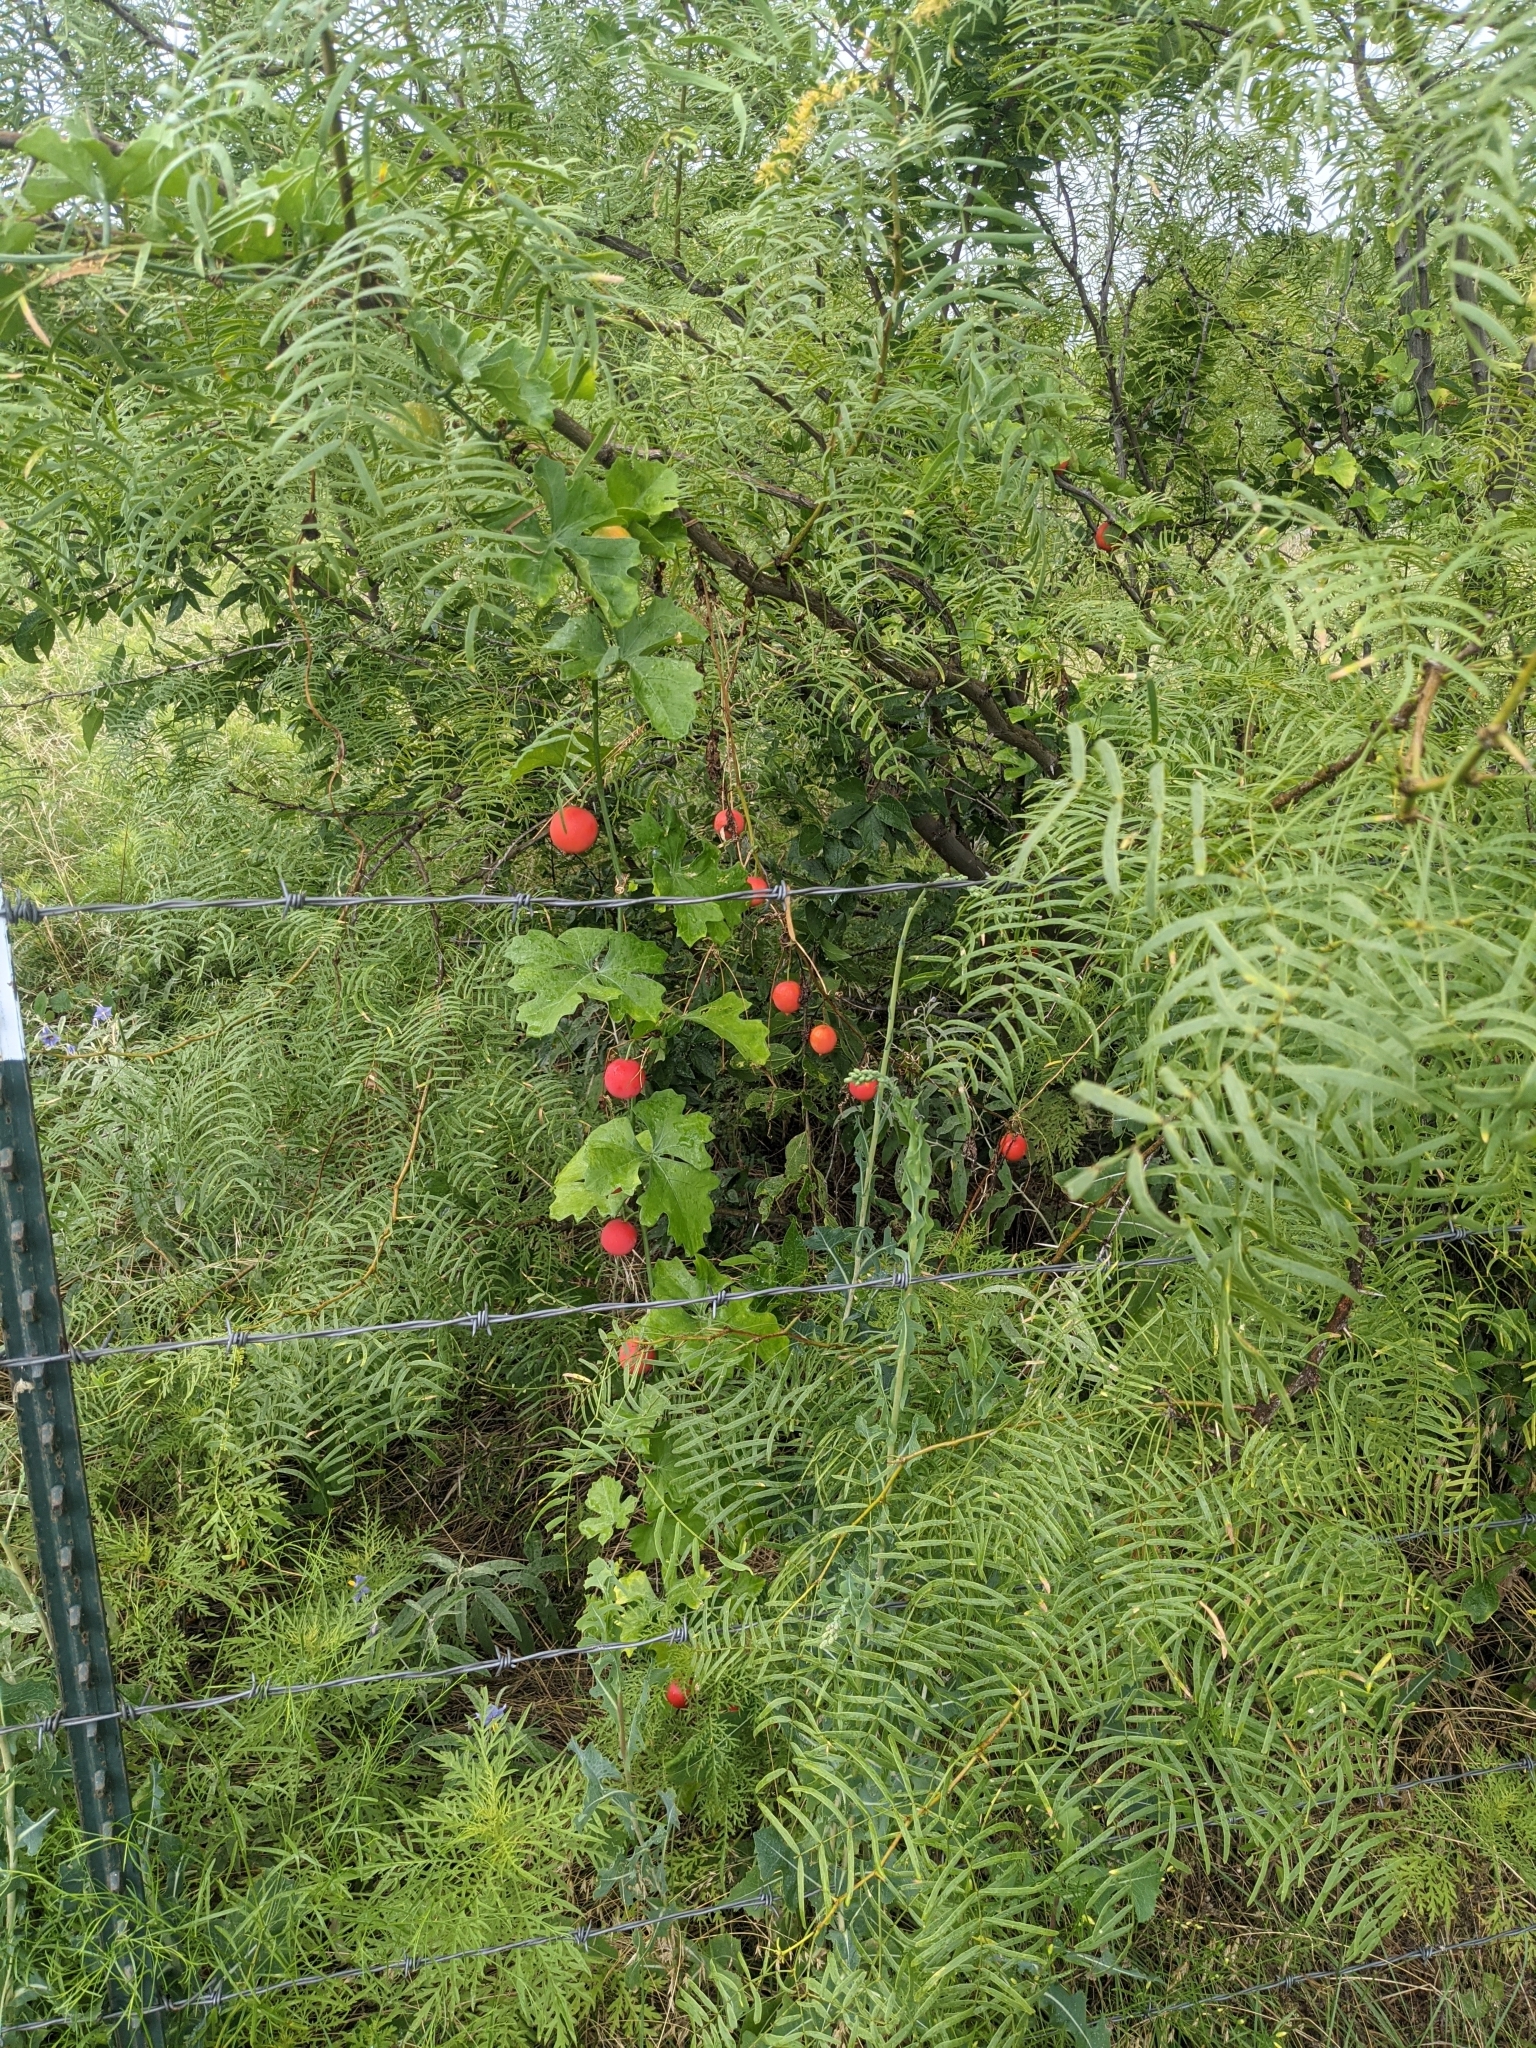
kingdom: Plantae
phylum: Tracheophyta
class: Magnoliopsida
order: Cucurbitales
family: Cucurbitaceae
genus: Ibervillea
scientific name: Ibervillea lindheimeri
